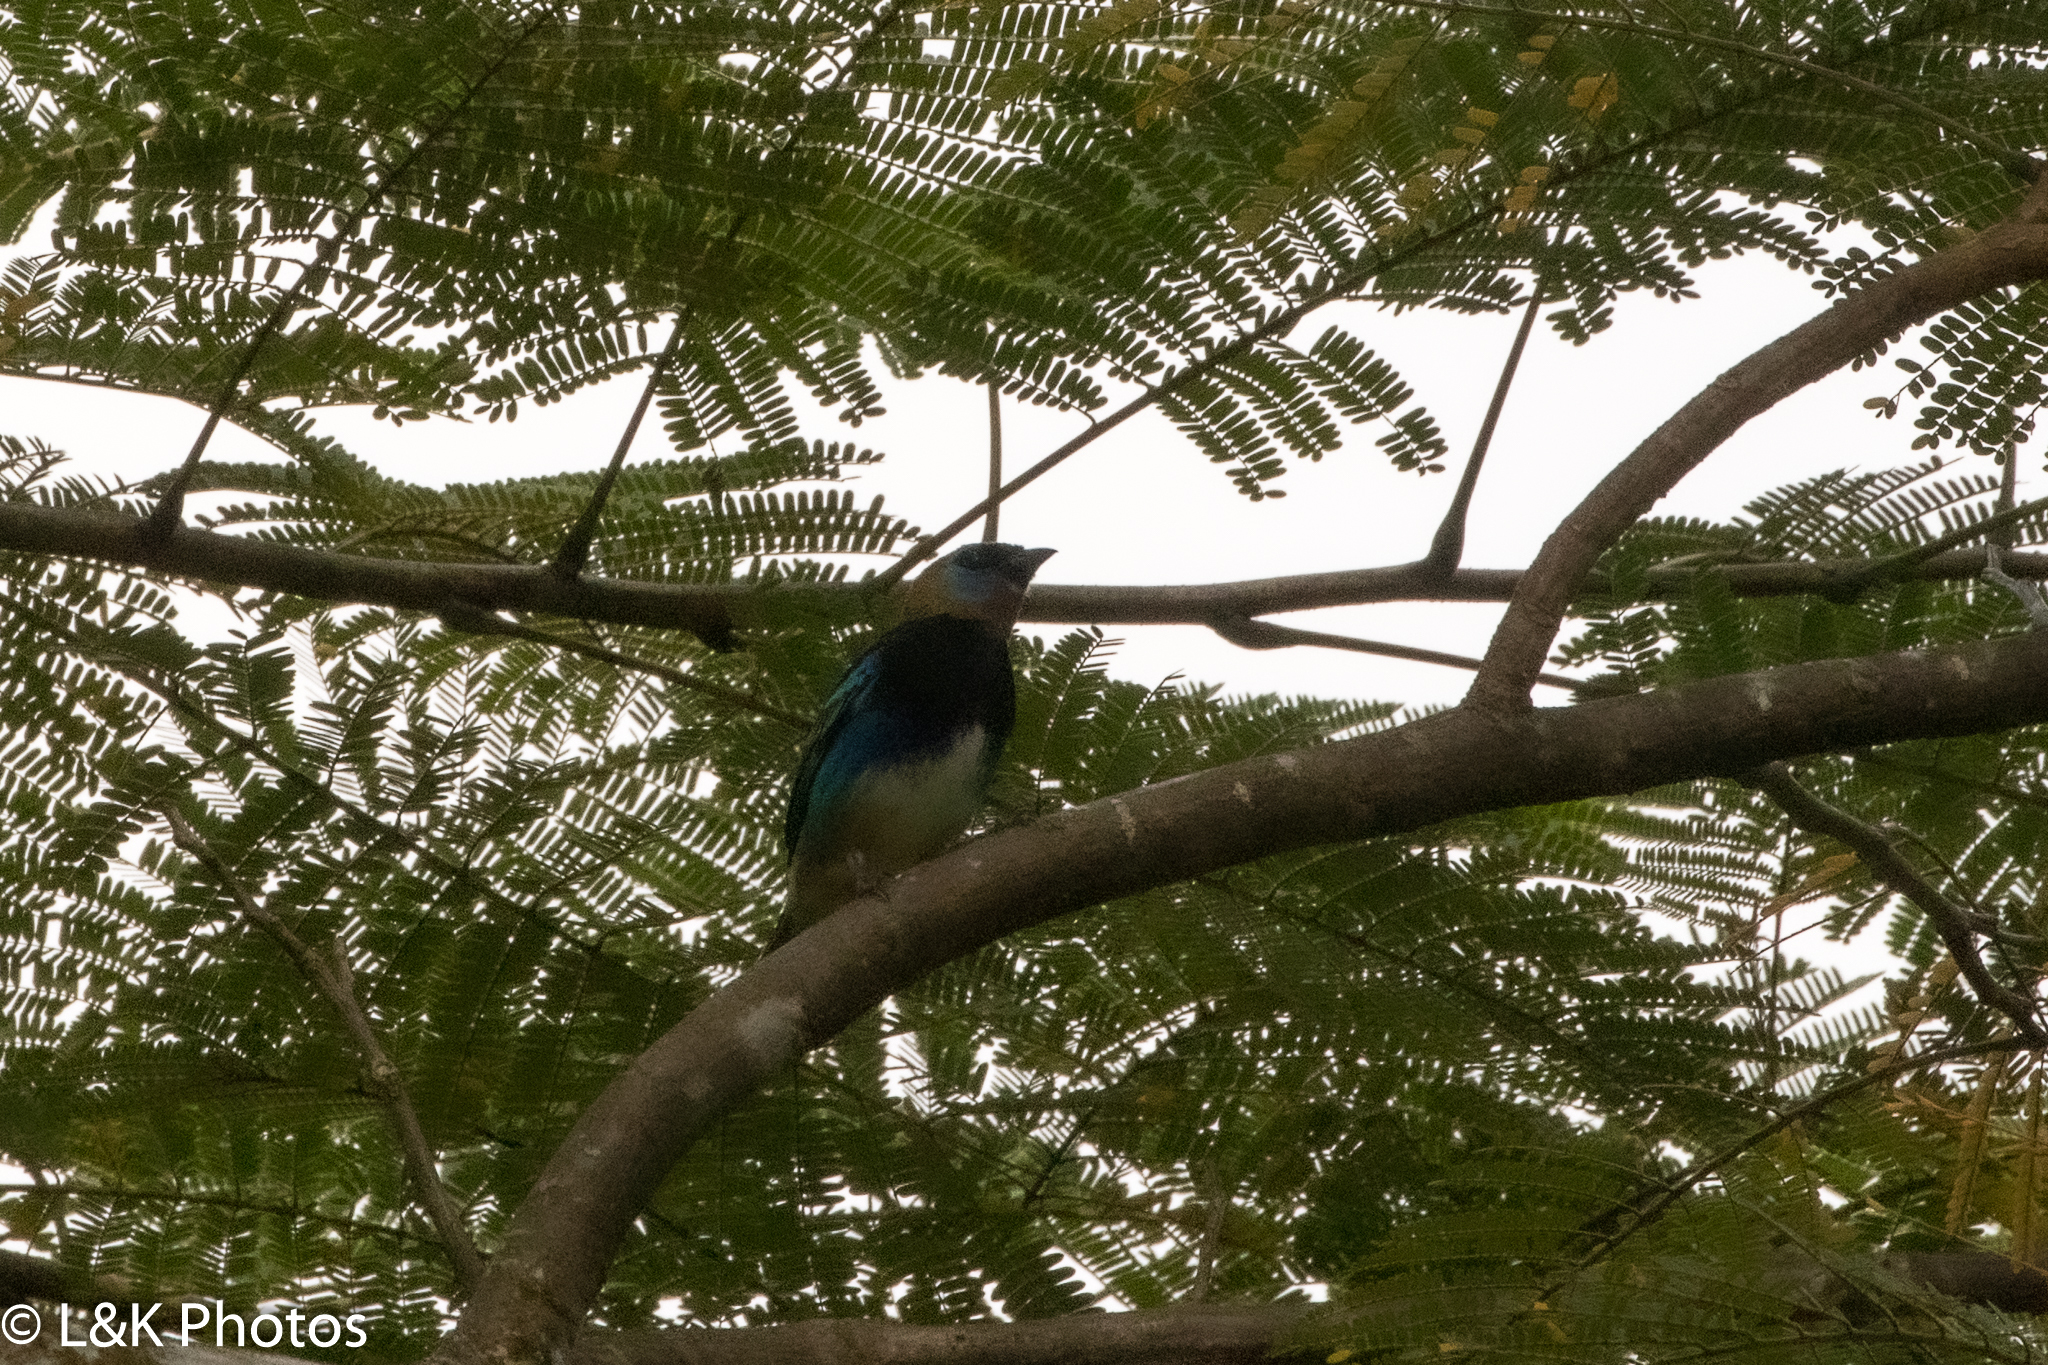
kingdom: Animalia
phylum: Chordata
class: Aves
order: Passeriformes
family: Thraupidae
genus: Stilpnia
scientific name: Stilpnia larvata
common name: Golden-hooded tanager
